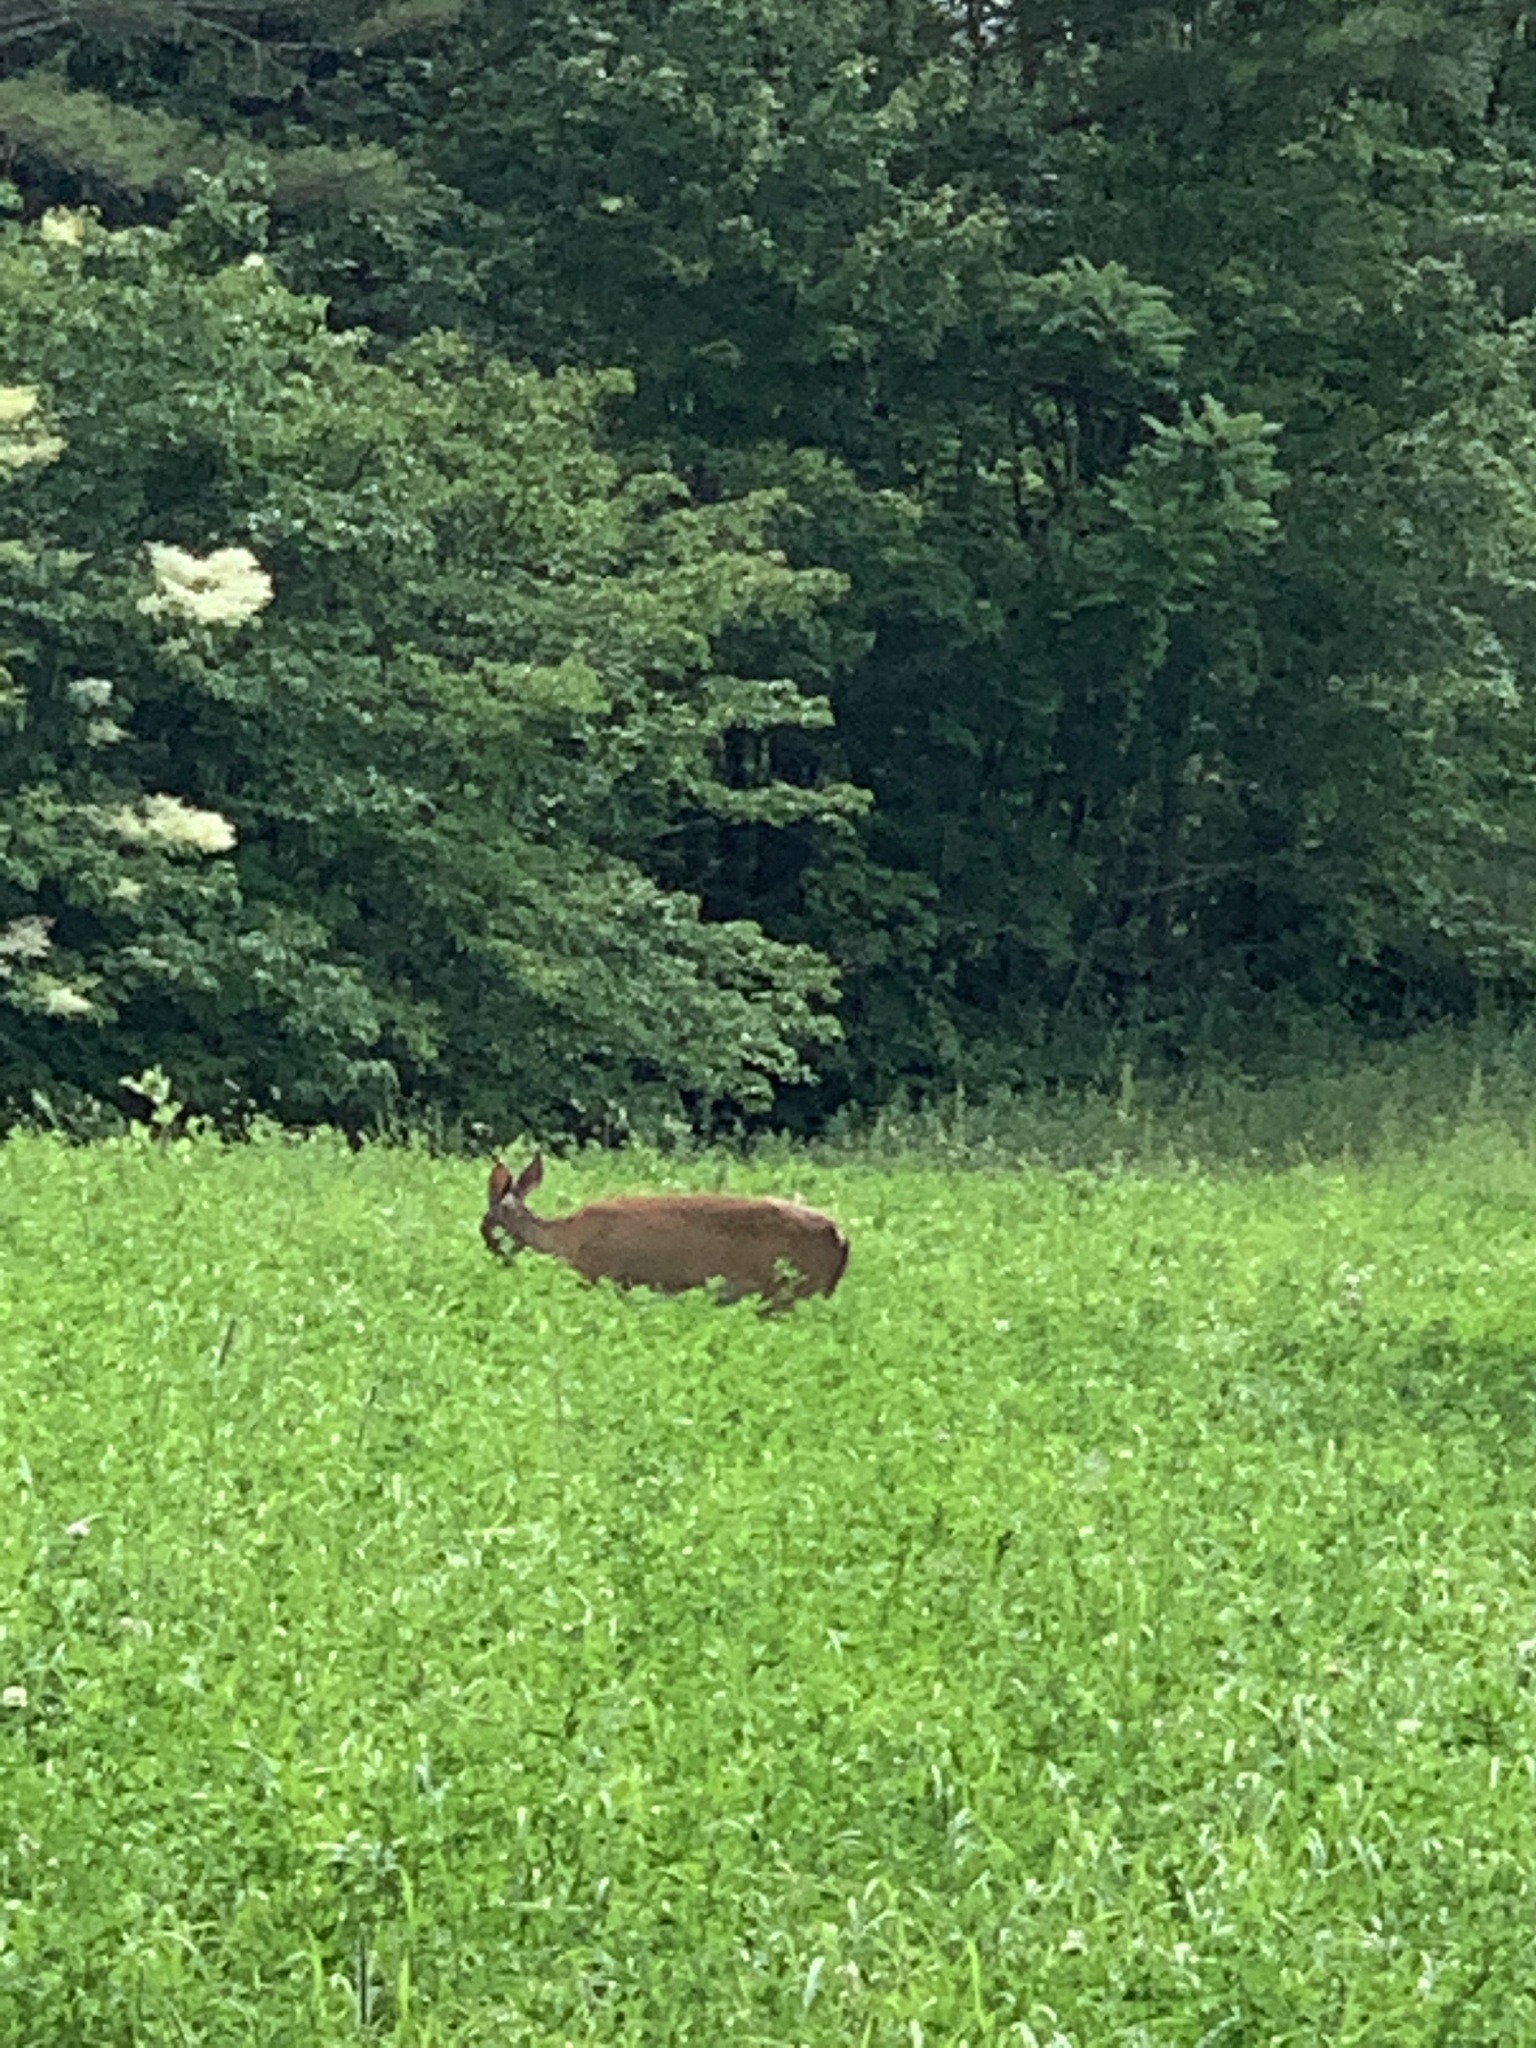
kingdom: Animalia
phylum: Chordata
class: Mammalia
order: Artiodactyla
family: Cervidae
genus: Odocoileus
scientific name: Odocoileus virginianus
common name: White-tailed deer
